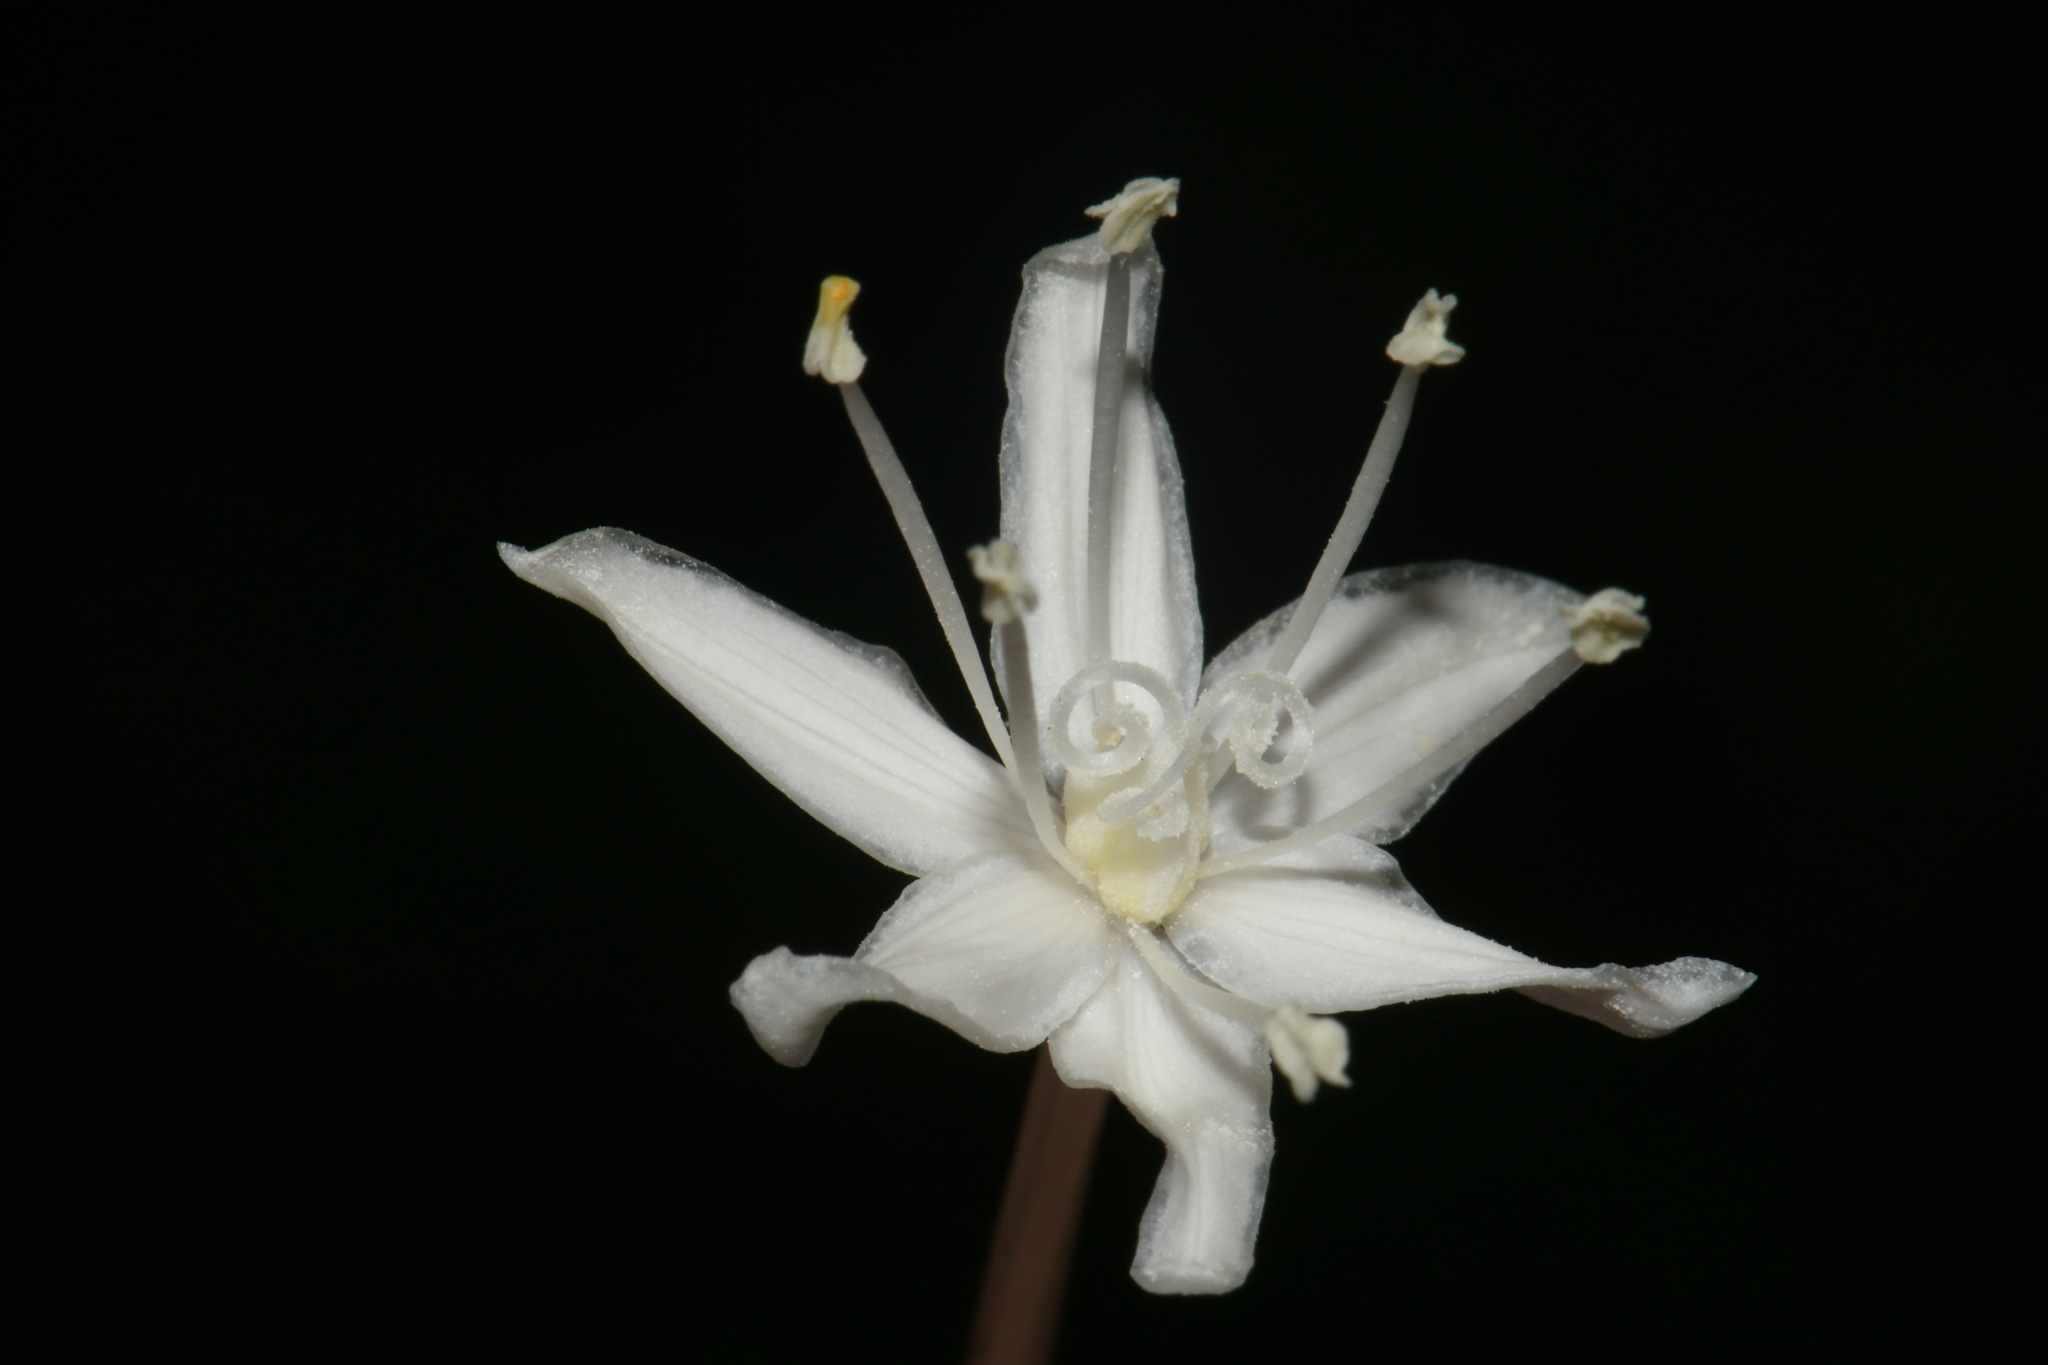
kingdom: Plantae
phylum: Tracheophyta
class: Liliopsida
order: Liliales
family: Melanthiaceae
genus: Xerophyllum
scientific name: Xerophyllum tenax
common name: Bear-grass
